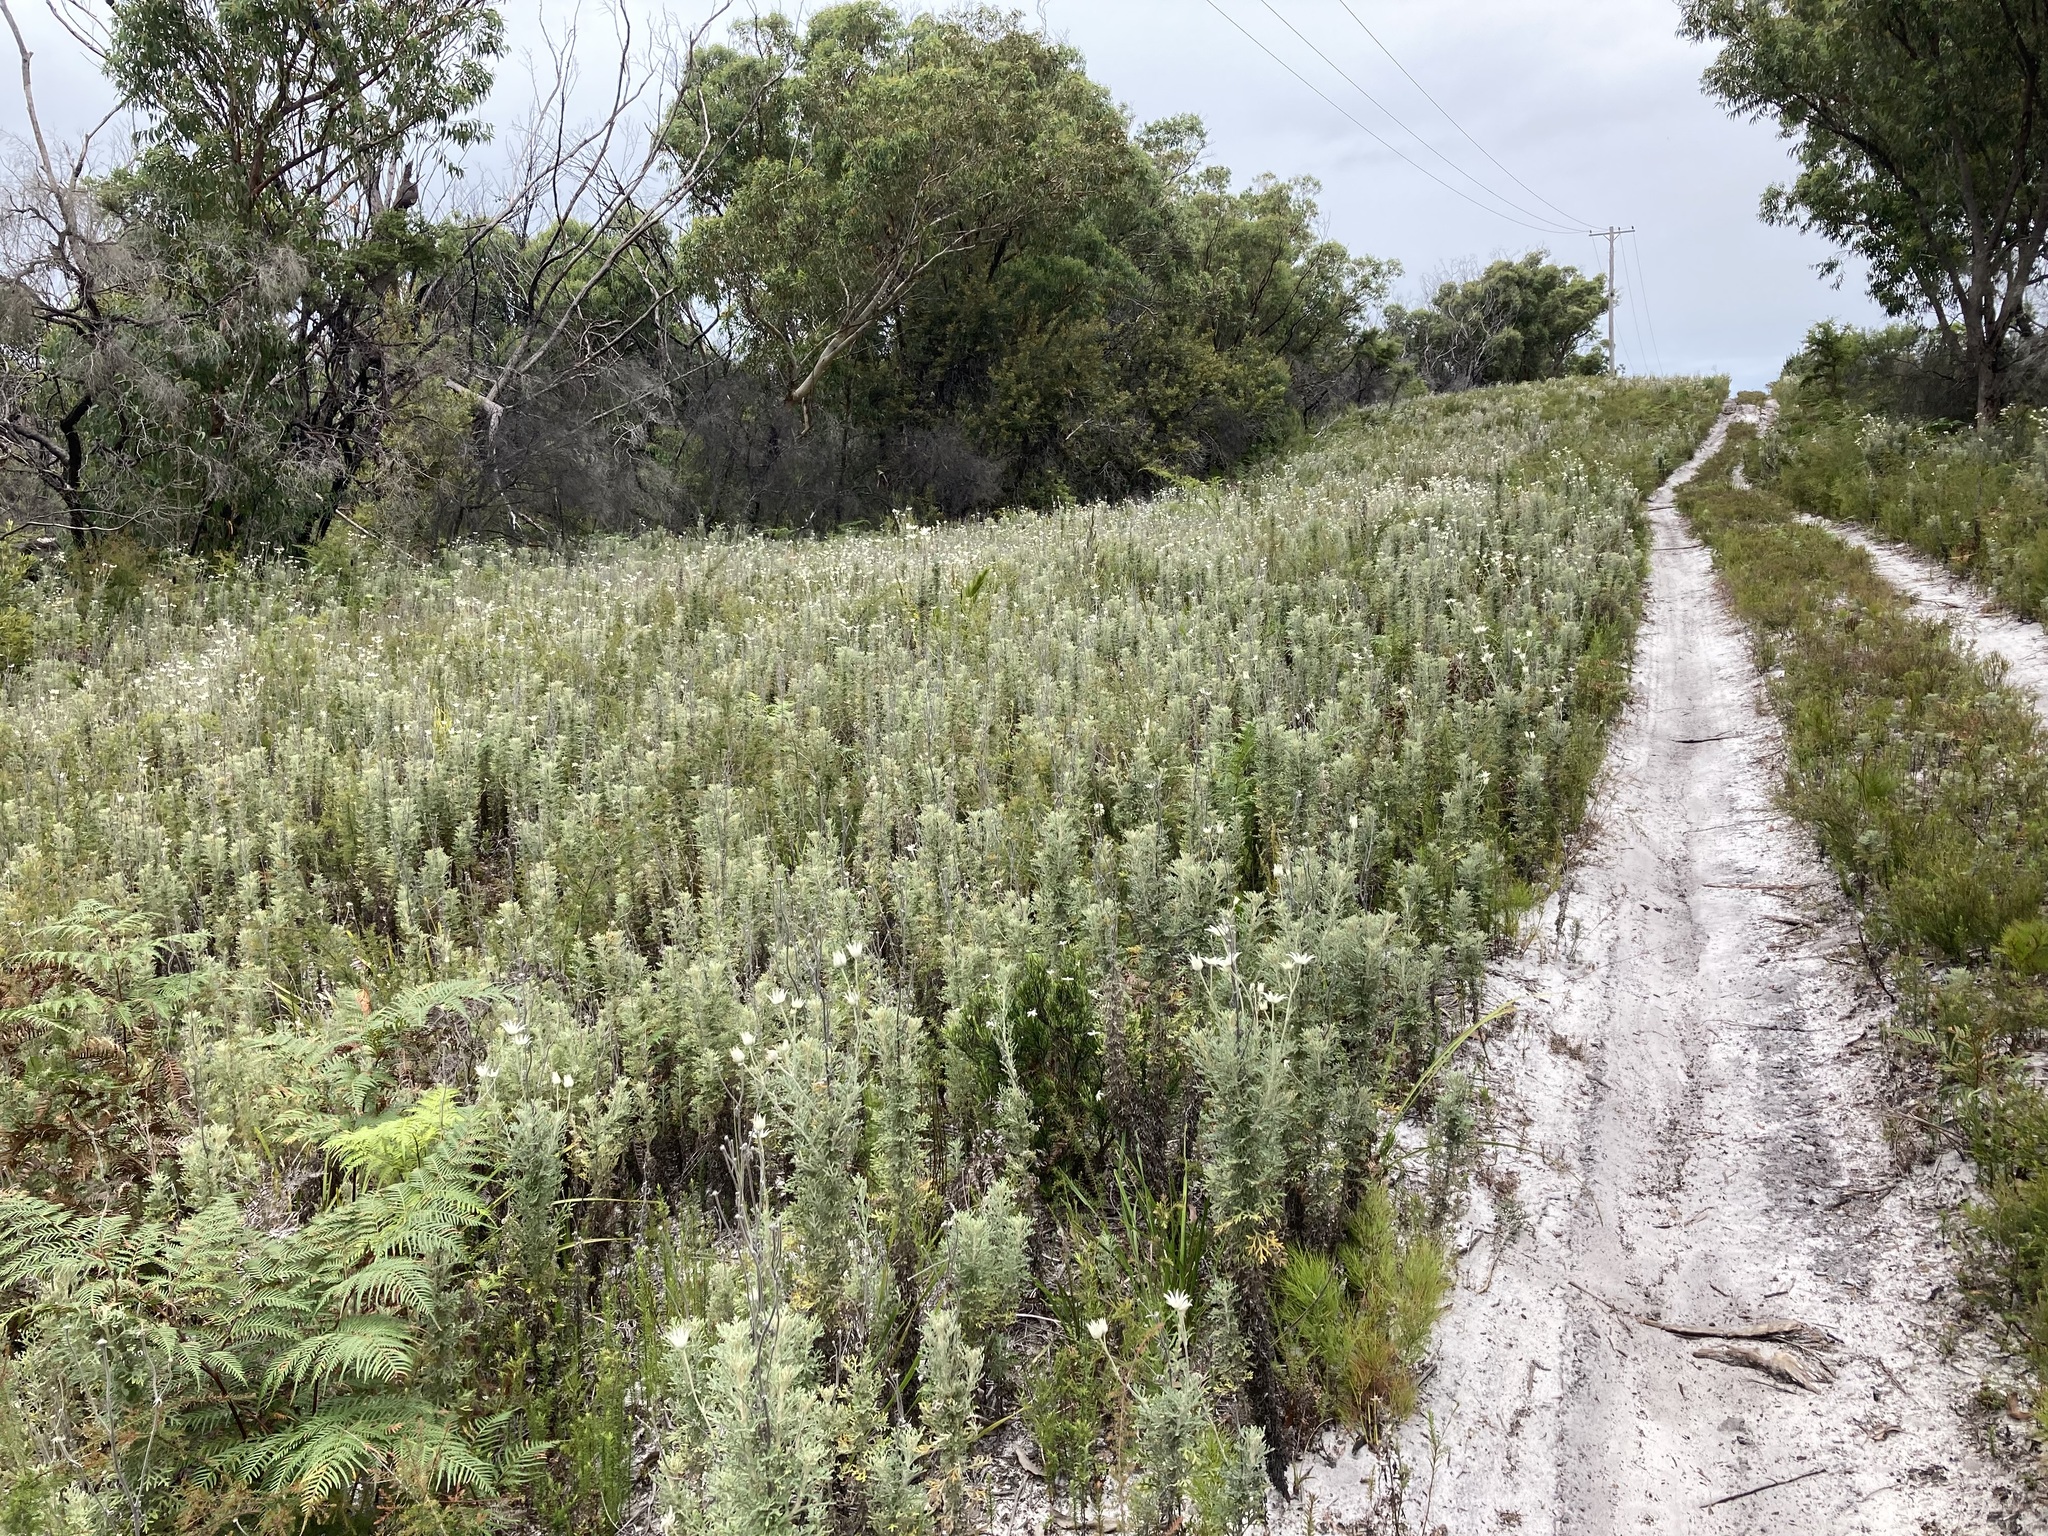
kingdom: Plantae
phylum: Tracheophyta
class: Magnoliopsida
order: Apiales
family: Apiaceae
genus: Actinotus
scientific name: Actinotus helianthi
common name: Flannel-flower
